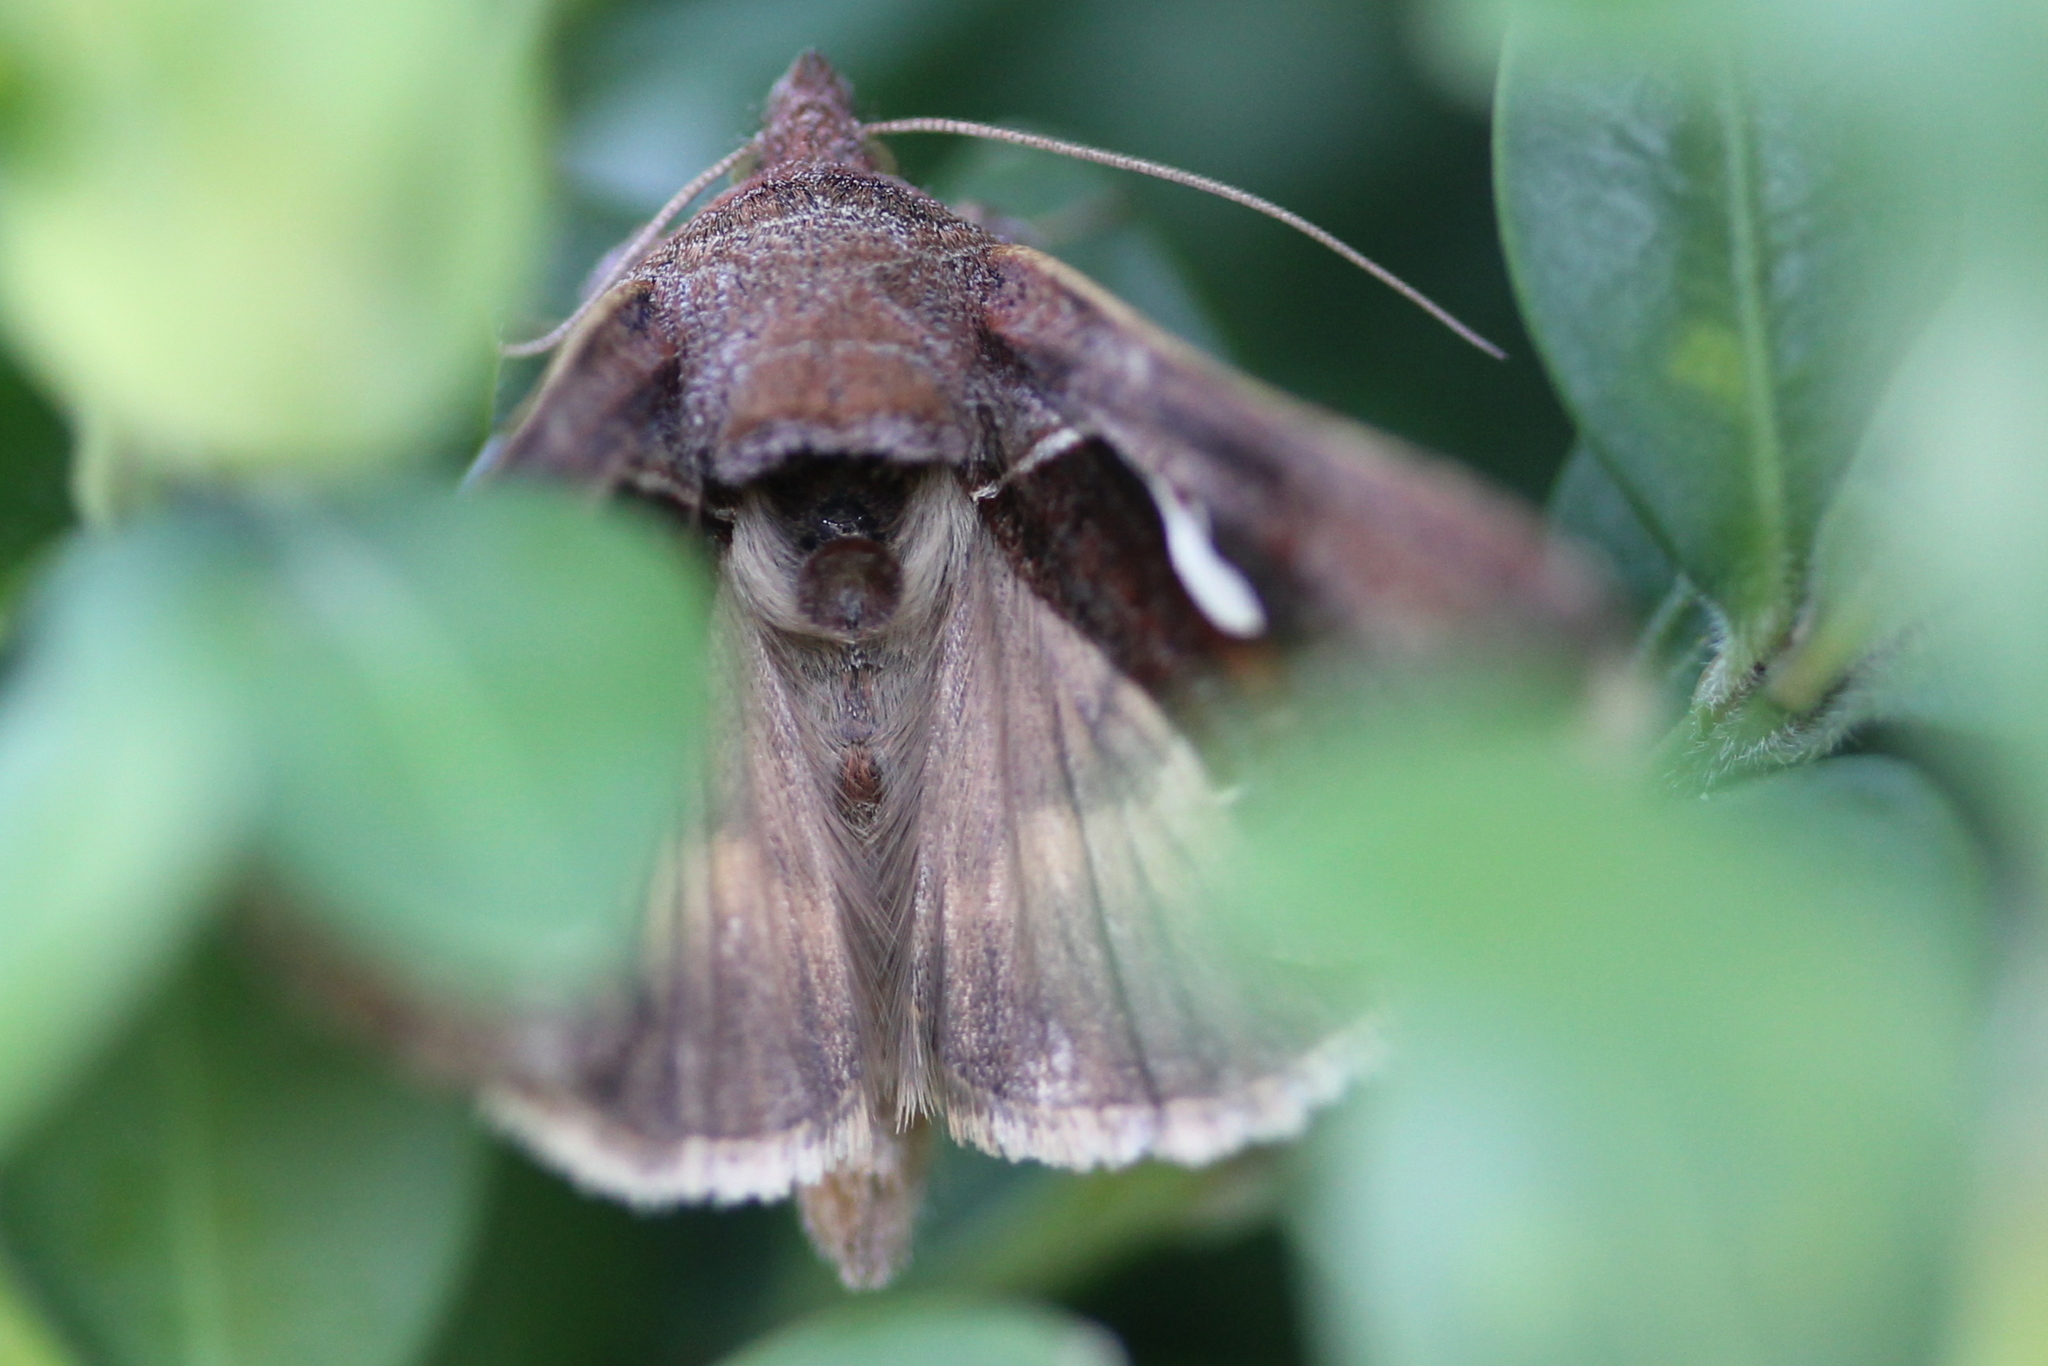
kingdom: Animalia
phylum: Arthropoda
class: Insecta
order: Lepidoptera
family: Noctuidae
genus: Anagrapha
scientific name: Anagrapha falcifera
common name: Celery looper
